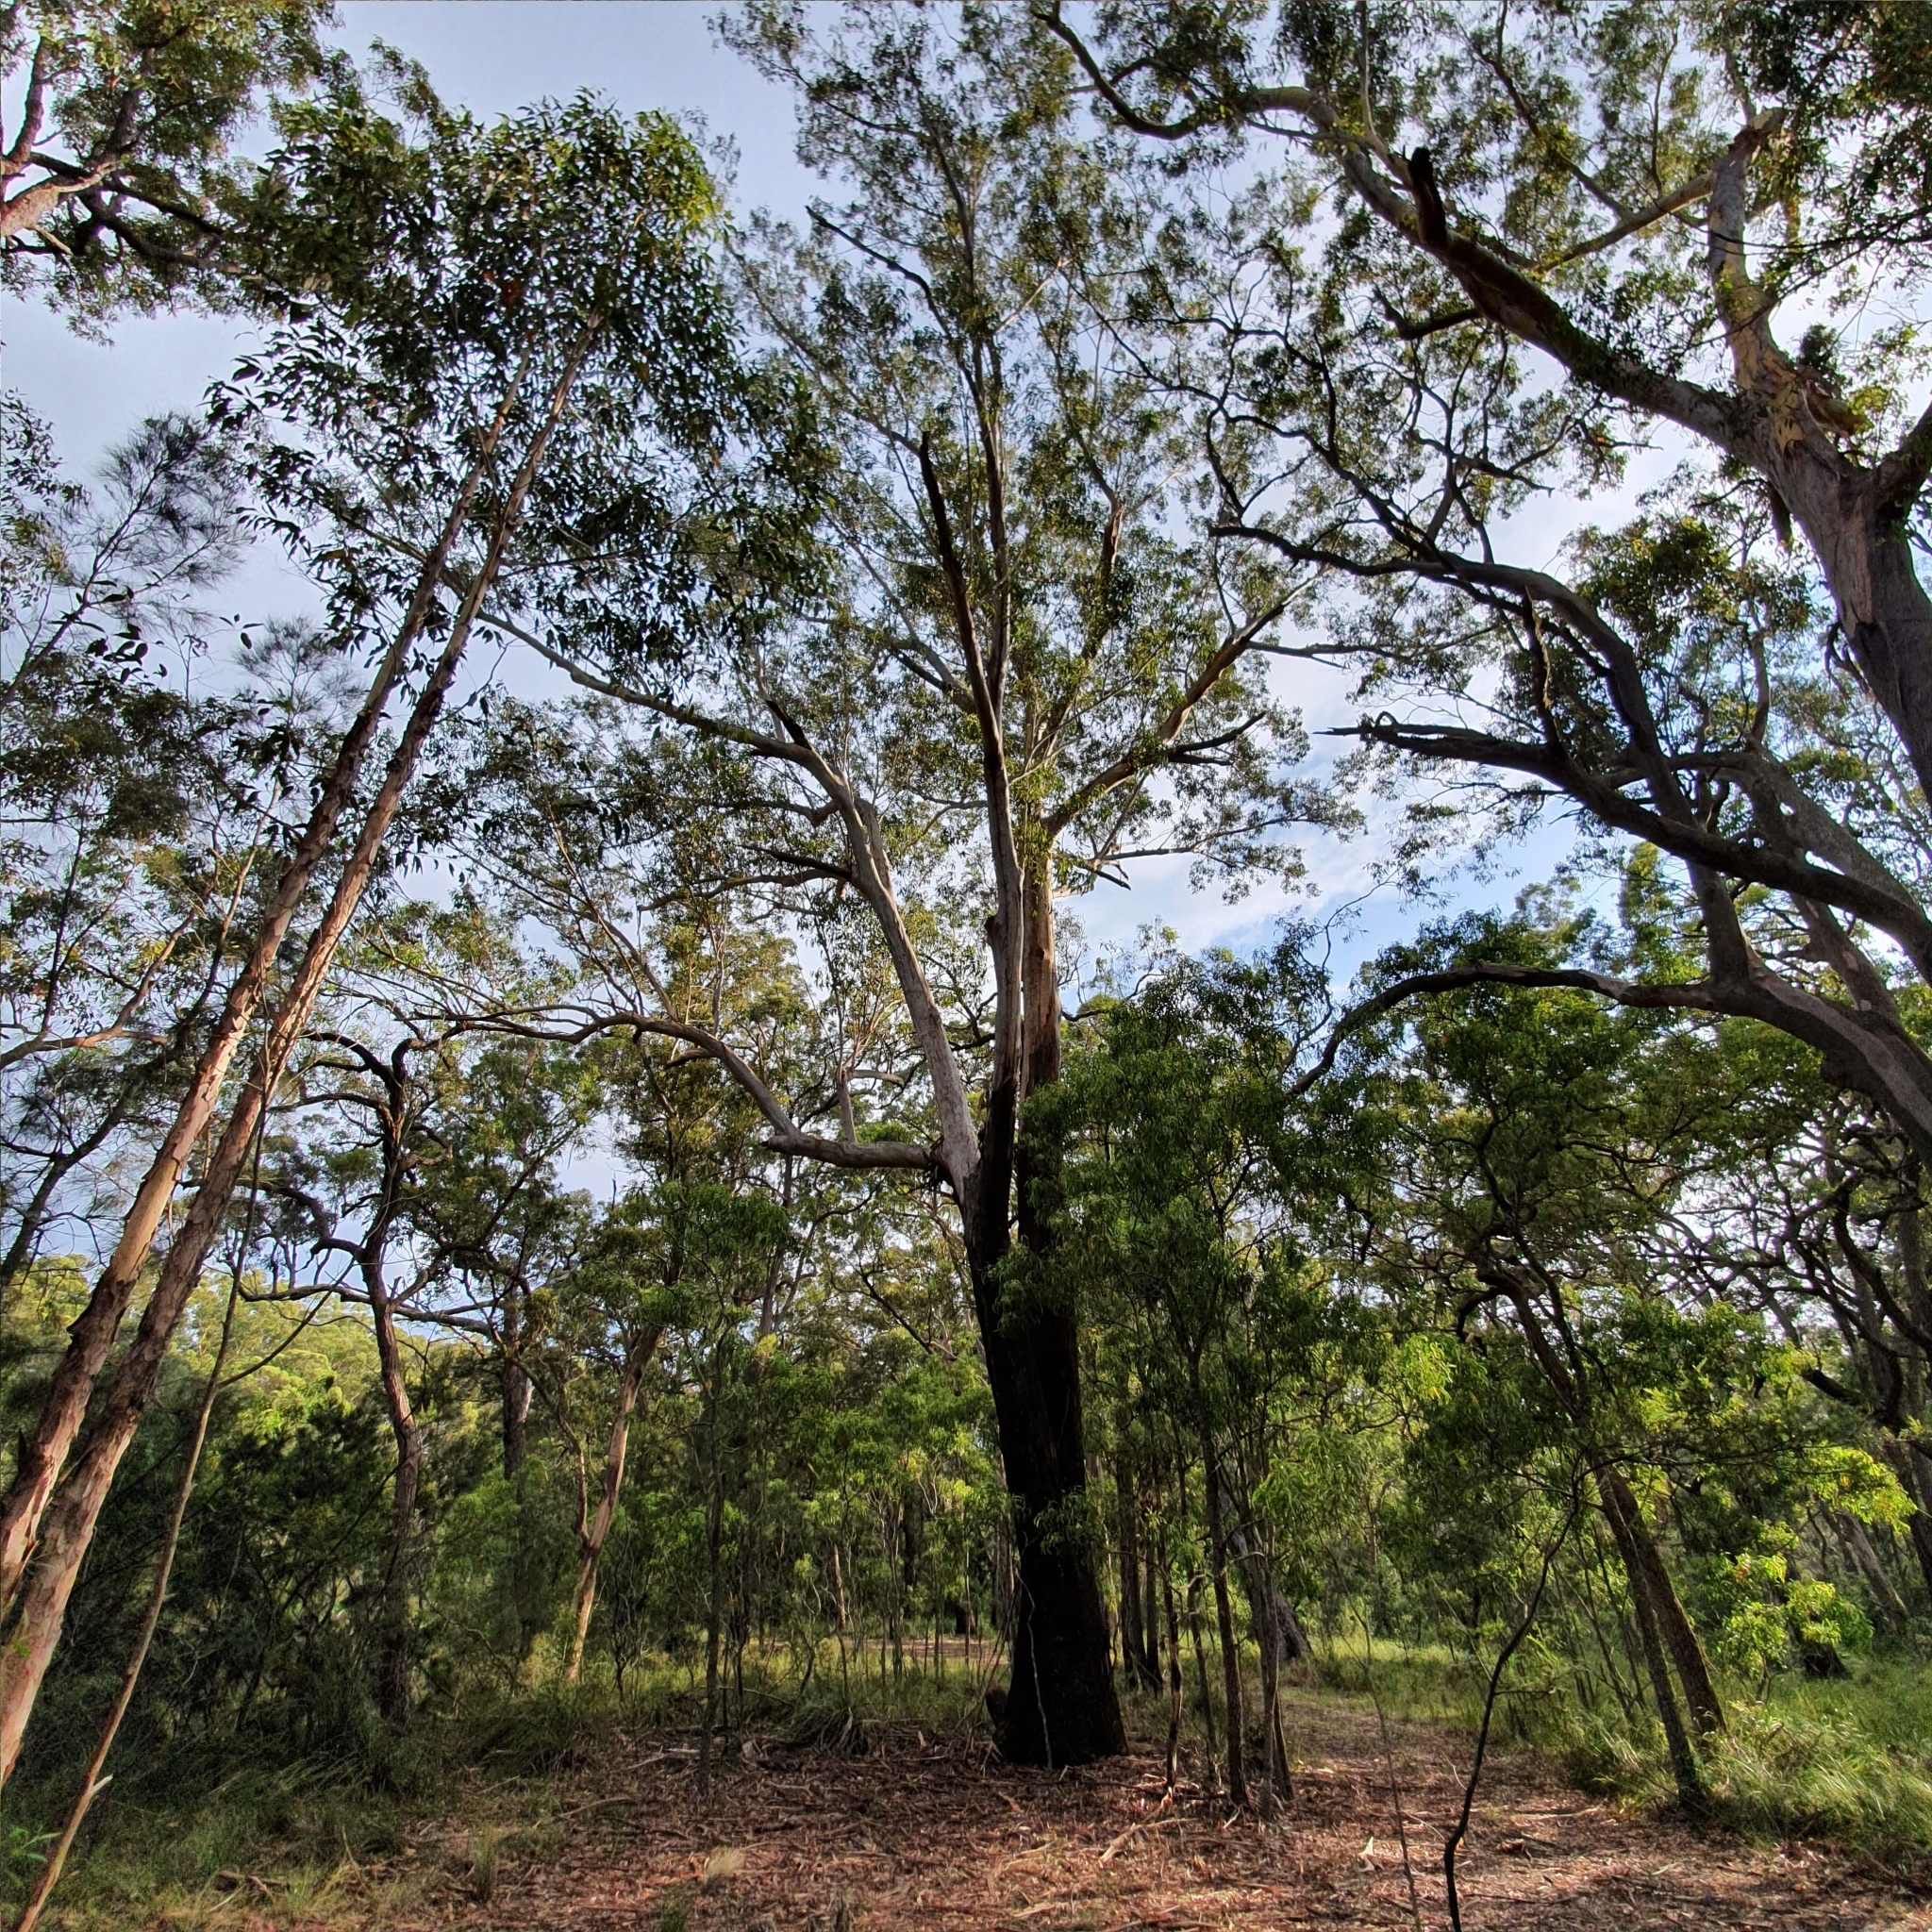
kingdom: Plantae
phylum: Tracheophyta
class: Magnoliopsida
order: Myrtales
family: Myrtaceae
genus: Eucalyptus
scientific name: Eucalyptus pilularis
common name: Blackbutt
